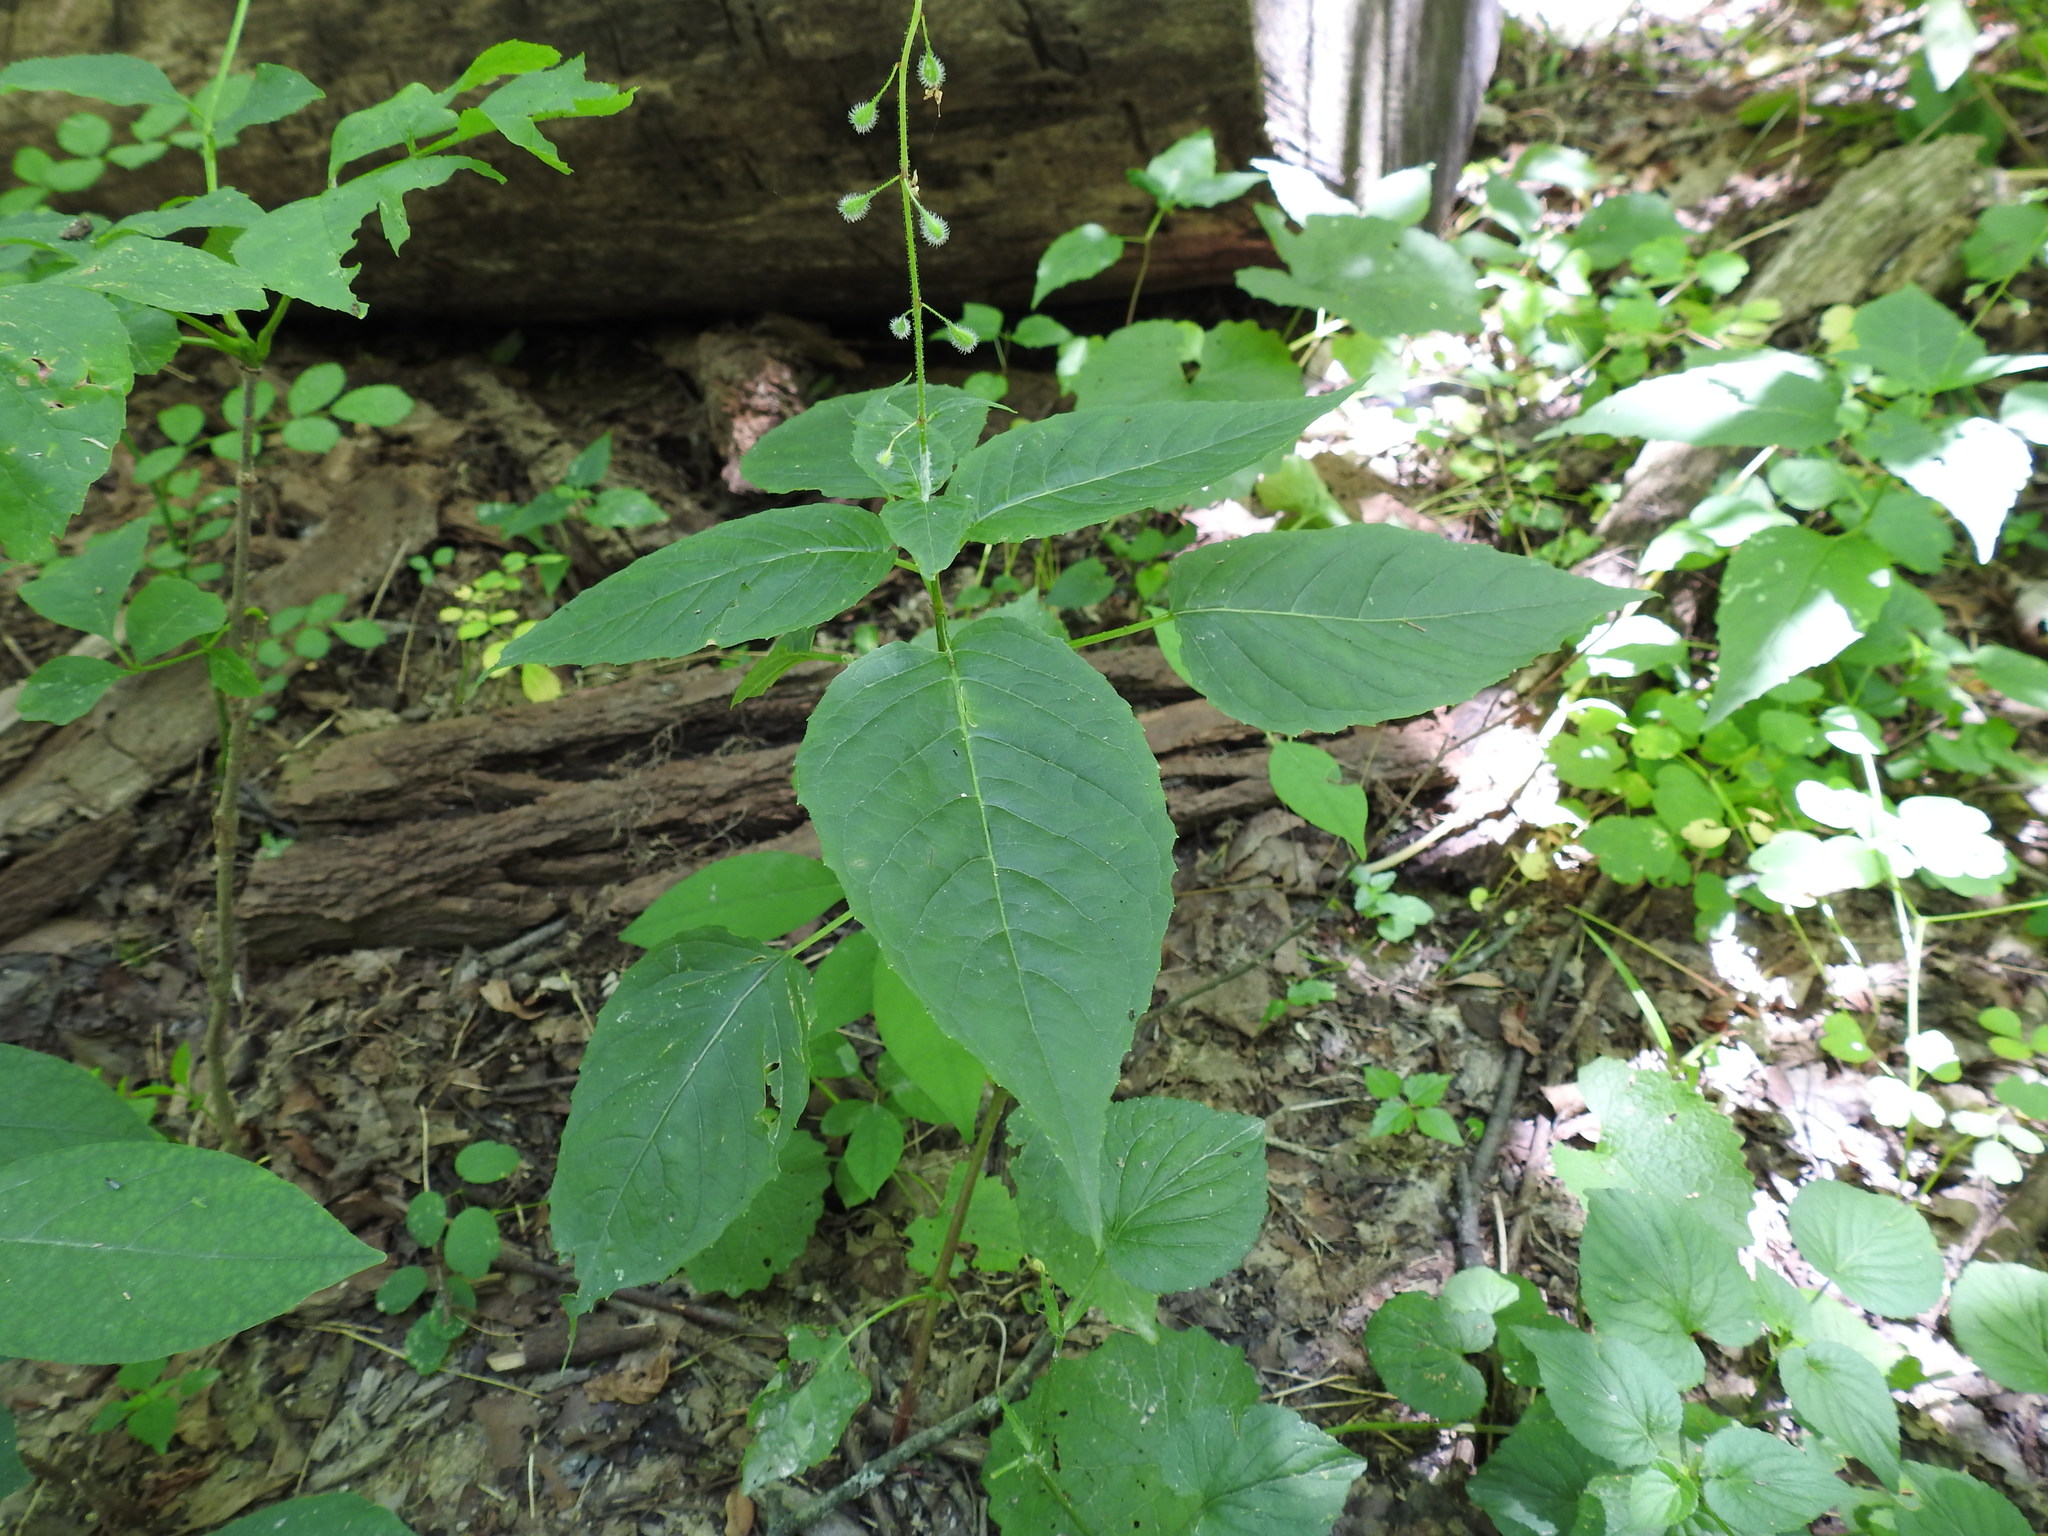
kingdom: Plantae
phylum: Tracheophyta
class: Magnoliopsida
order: Myrtales
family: Onagraceae
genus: Circaea
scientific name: Circaea canadensis
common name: Broad-leaved enchanter's nightshade
